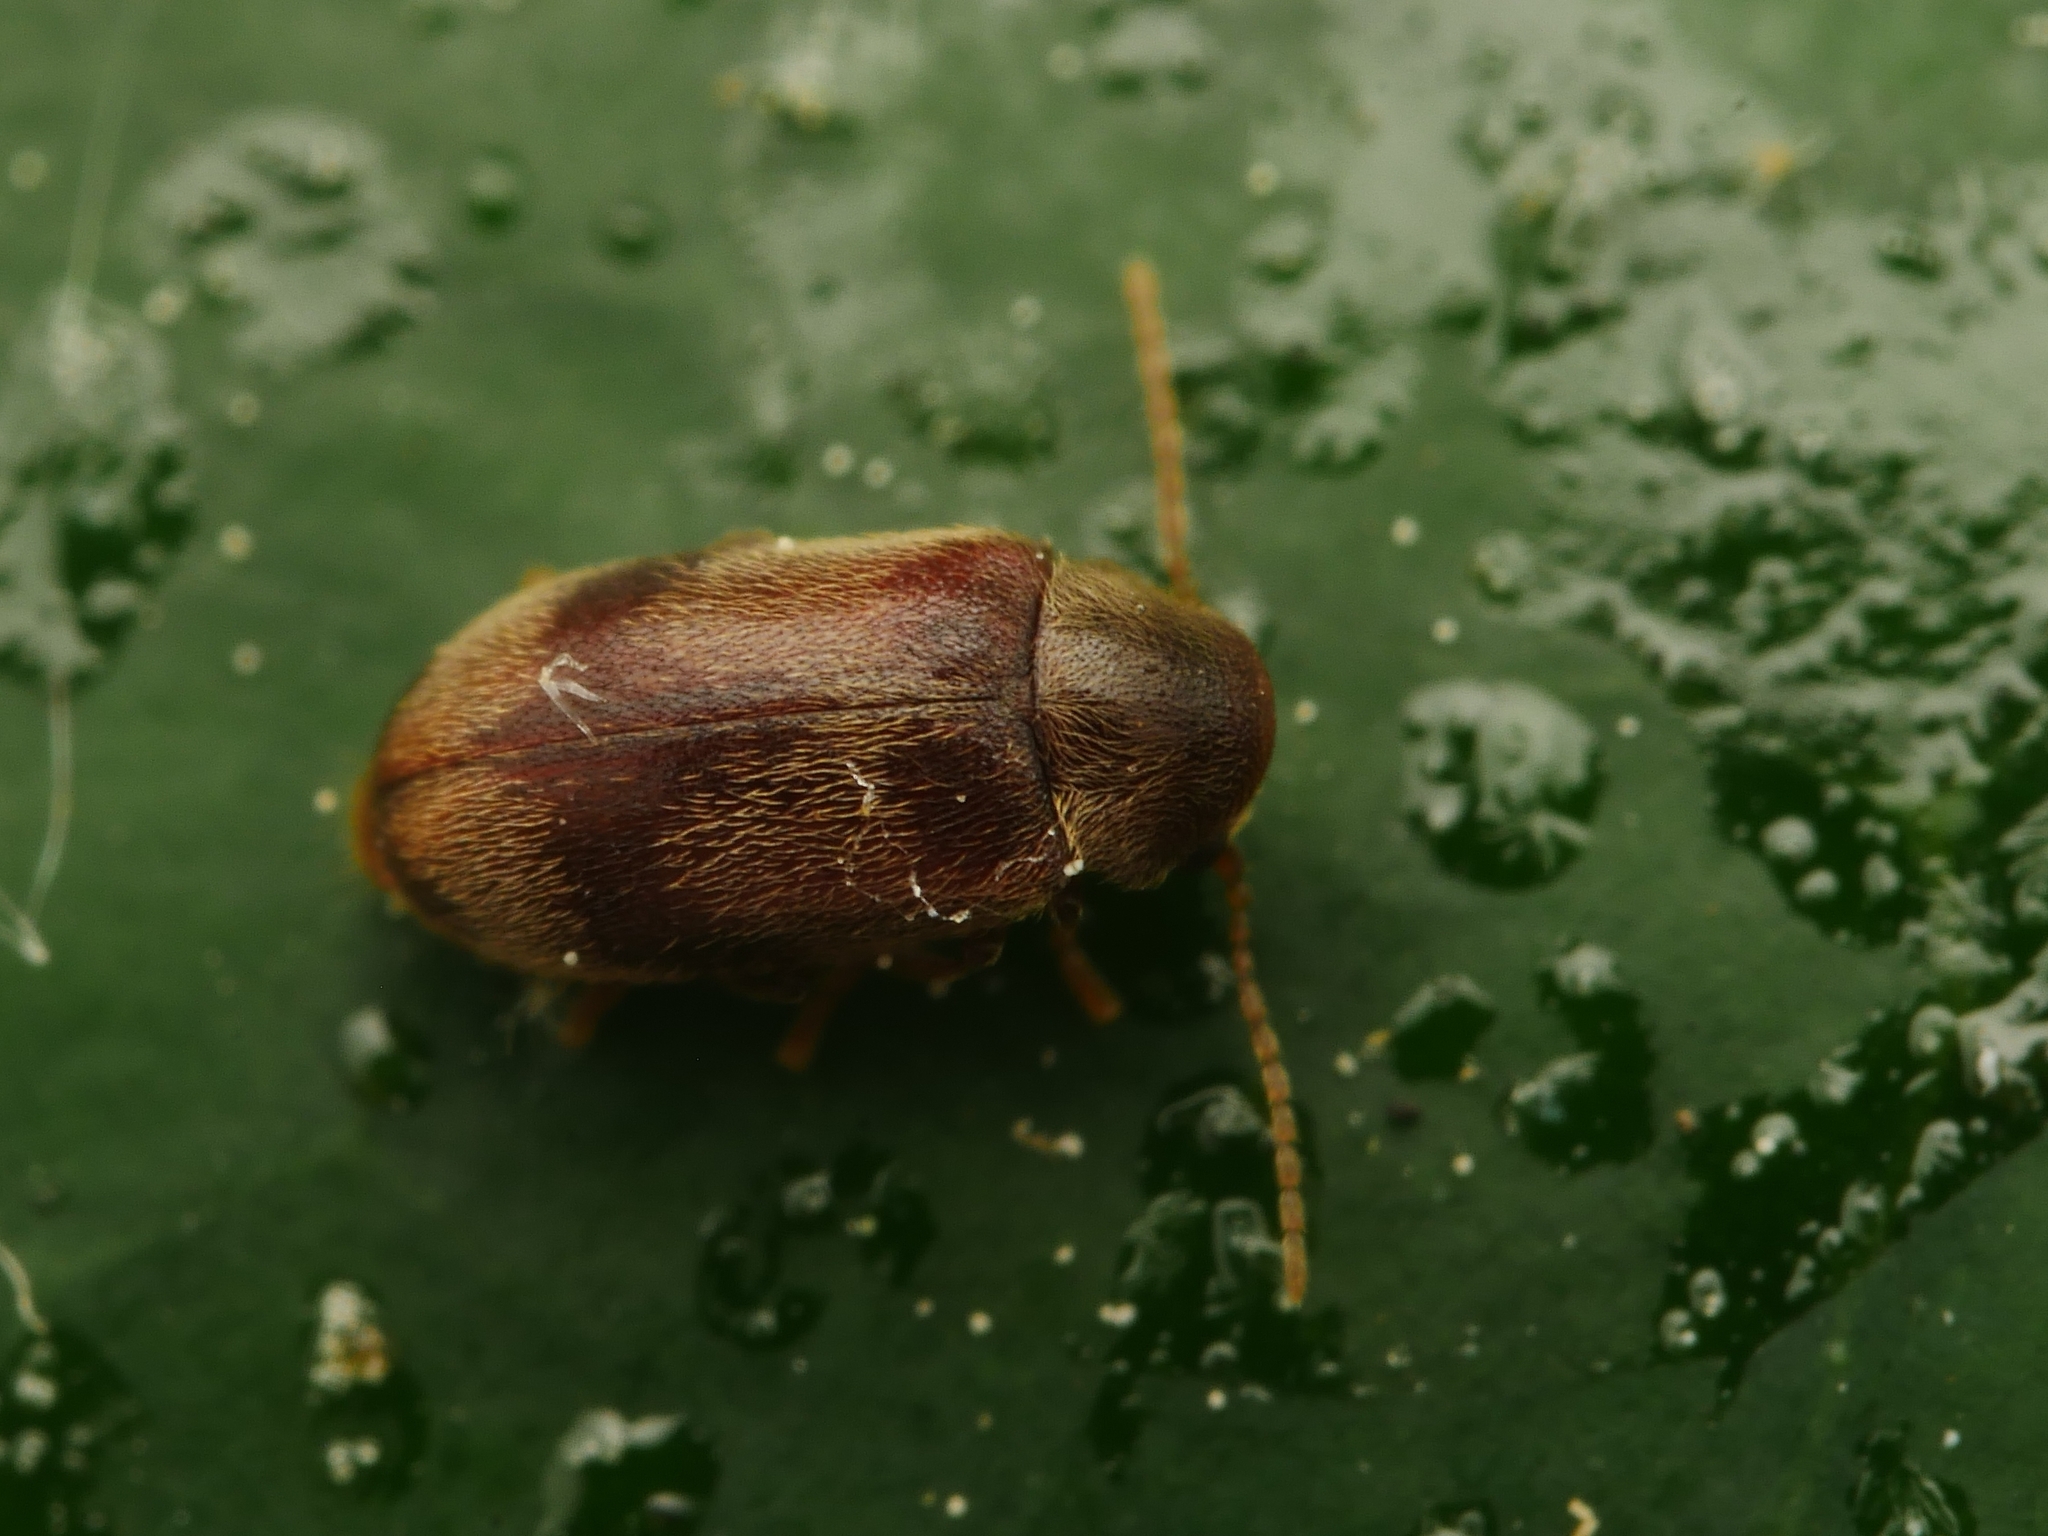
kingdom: Animalia
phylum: Arthropoda
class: Insecta
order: Coleoptera
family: Ptinidae
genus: Ochina
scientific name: Ochina ptinoides
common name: Ivy boring beetle
